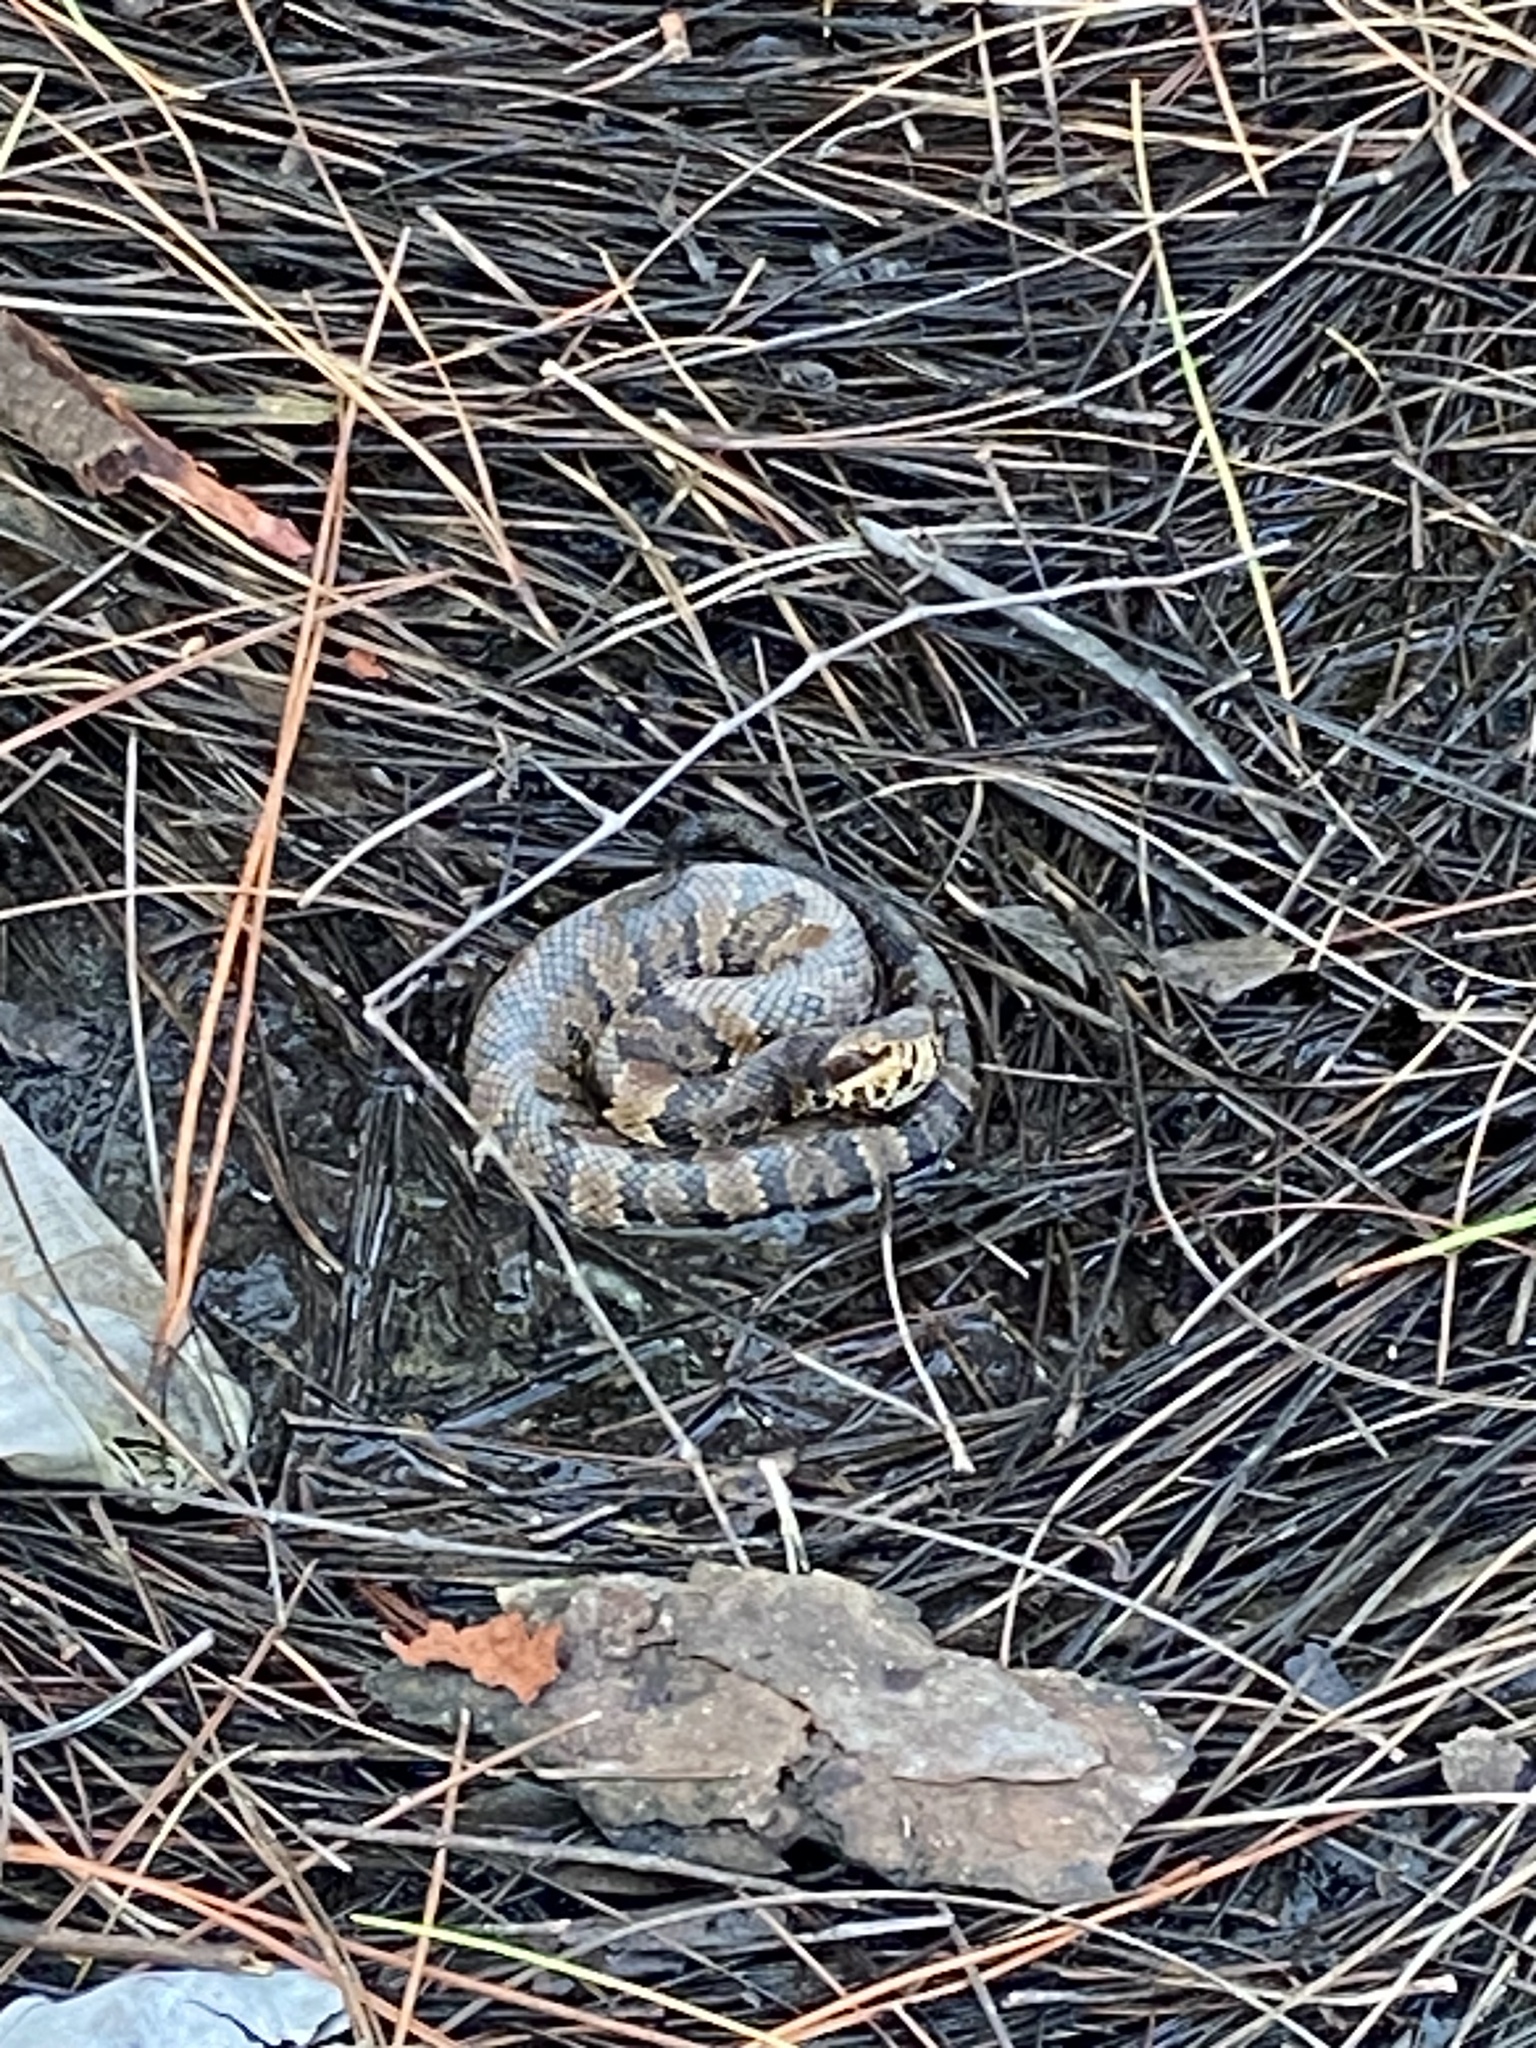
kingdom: Animalia
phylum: Chordata
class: Squamata
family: Viperidae
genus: Agkistrodon
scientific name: Agkistrodon conanti
